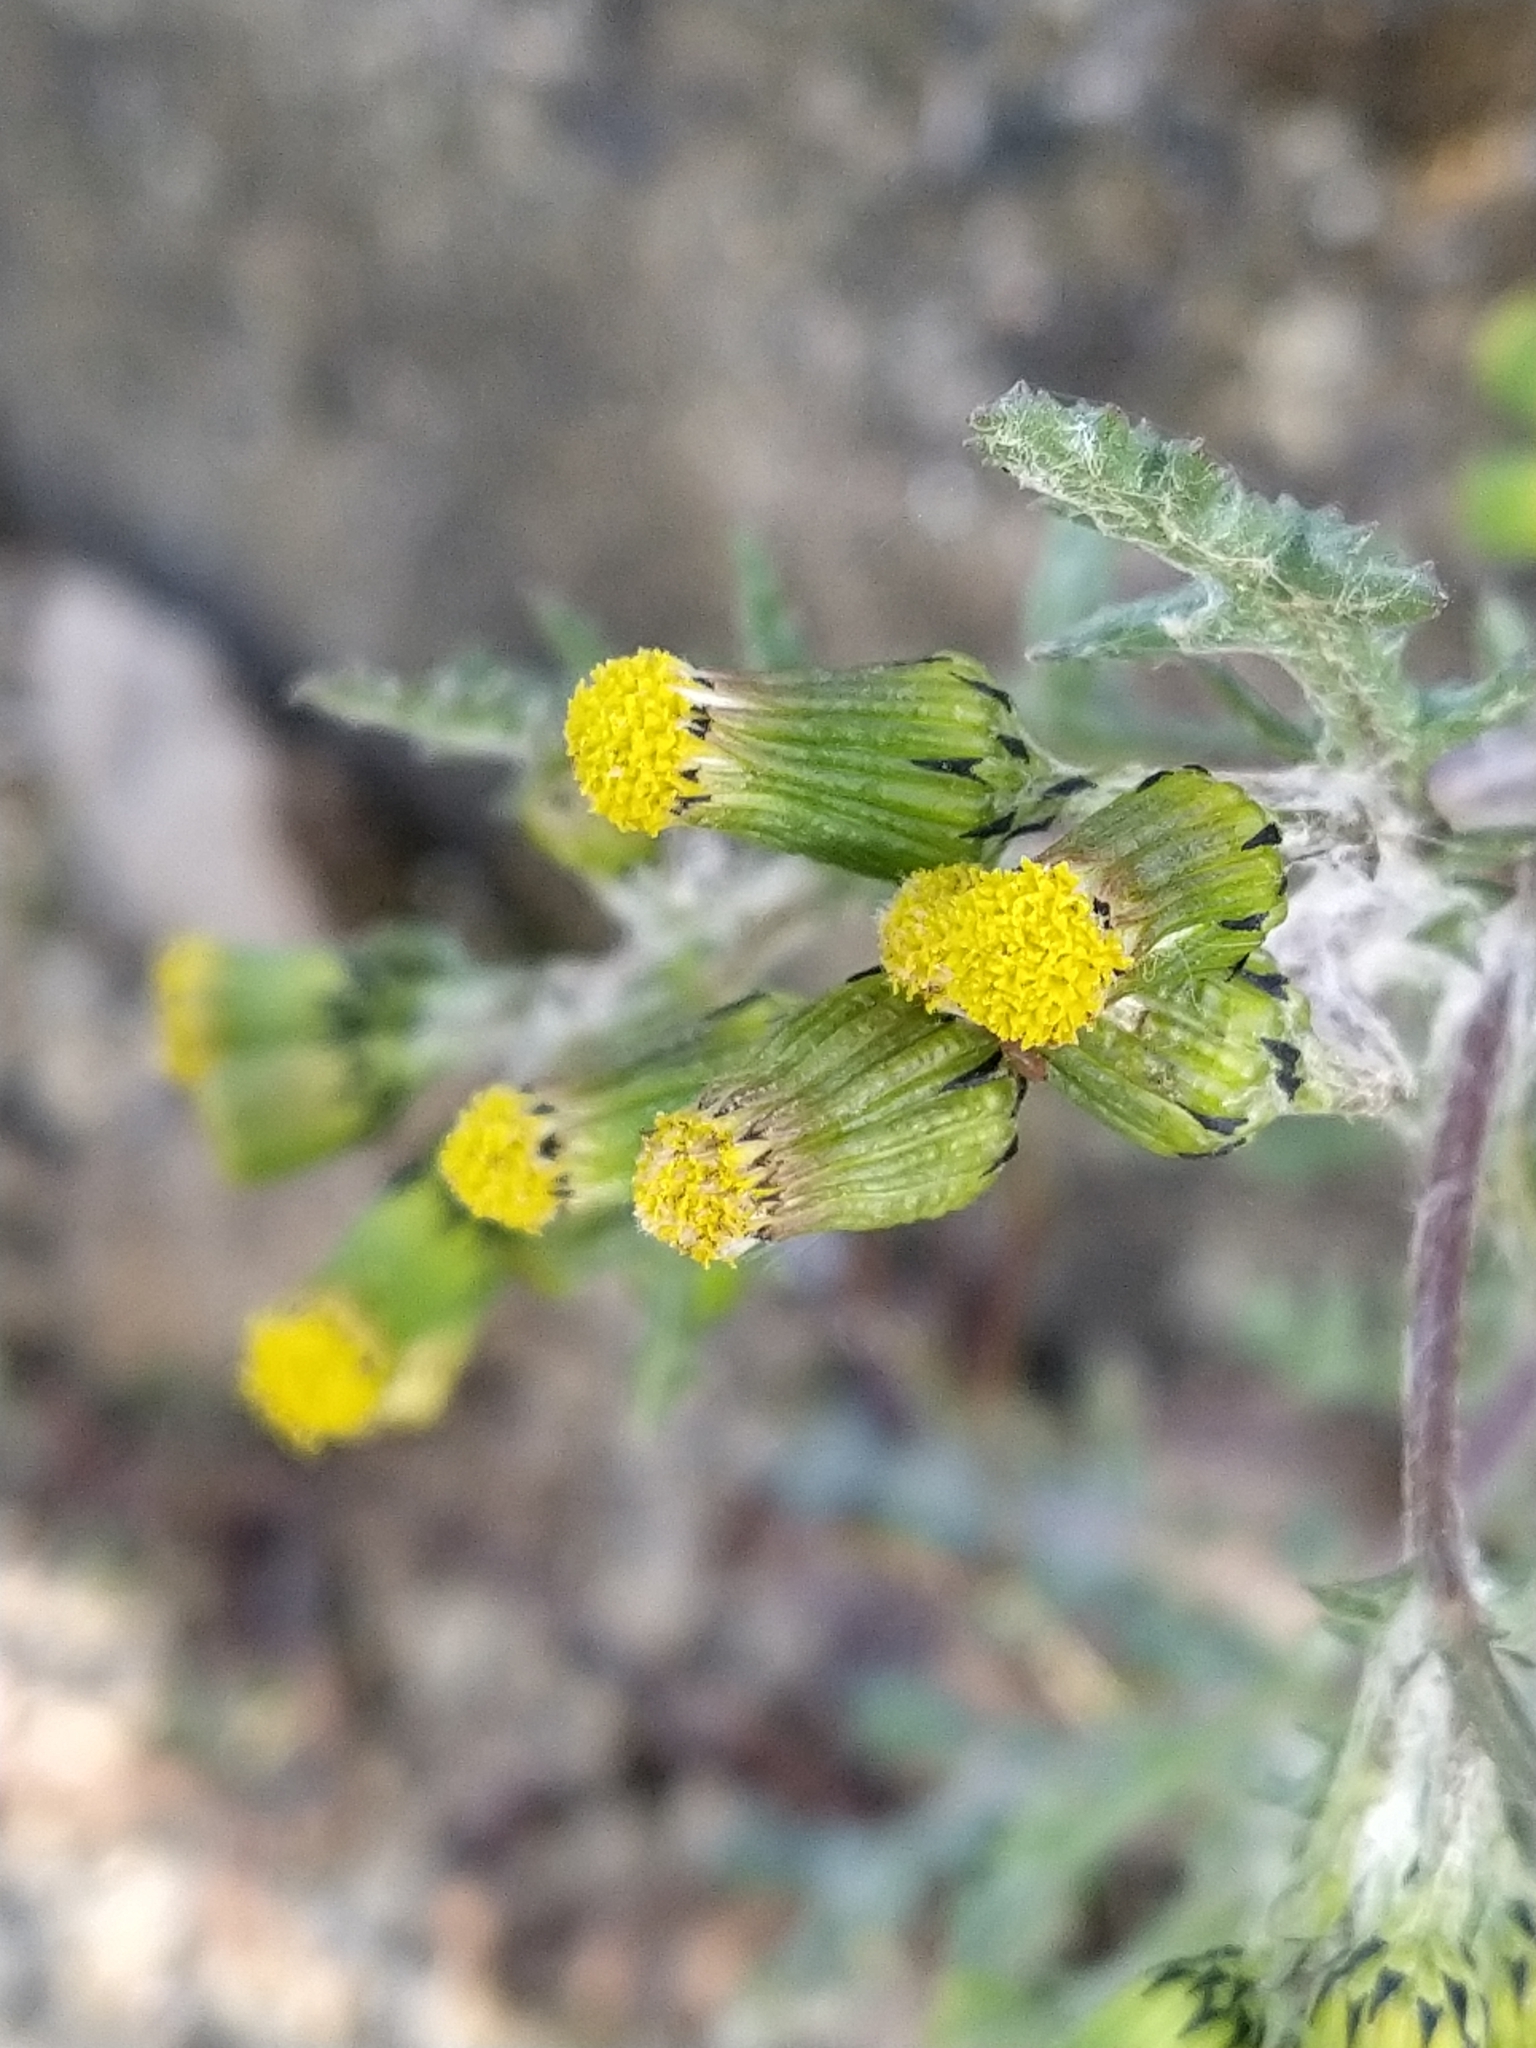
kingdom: Plantae
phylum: Tracheophyta
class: Magnoliopsida
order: Asterales
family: Asteraceae
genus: Senecio
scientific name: Senecio vulgaris
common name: Old-man-in-the-spring
